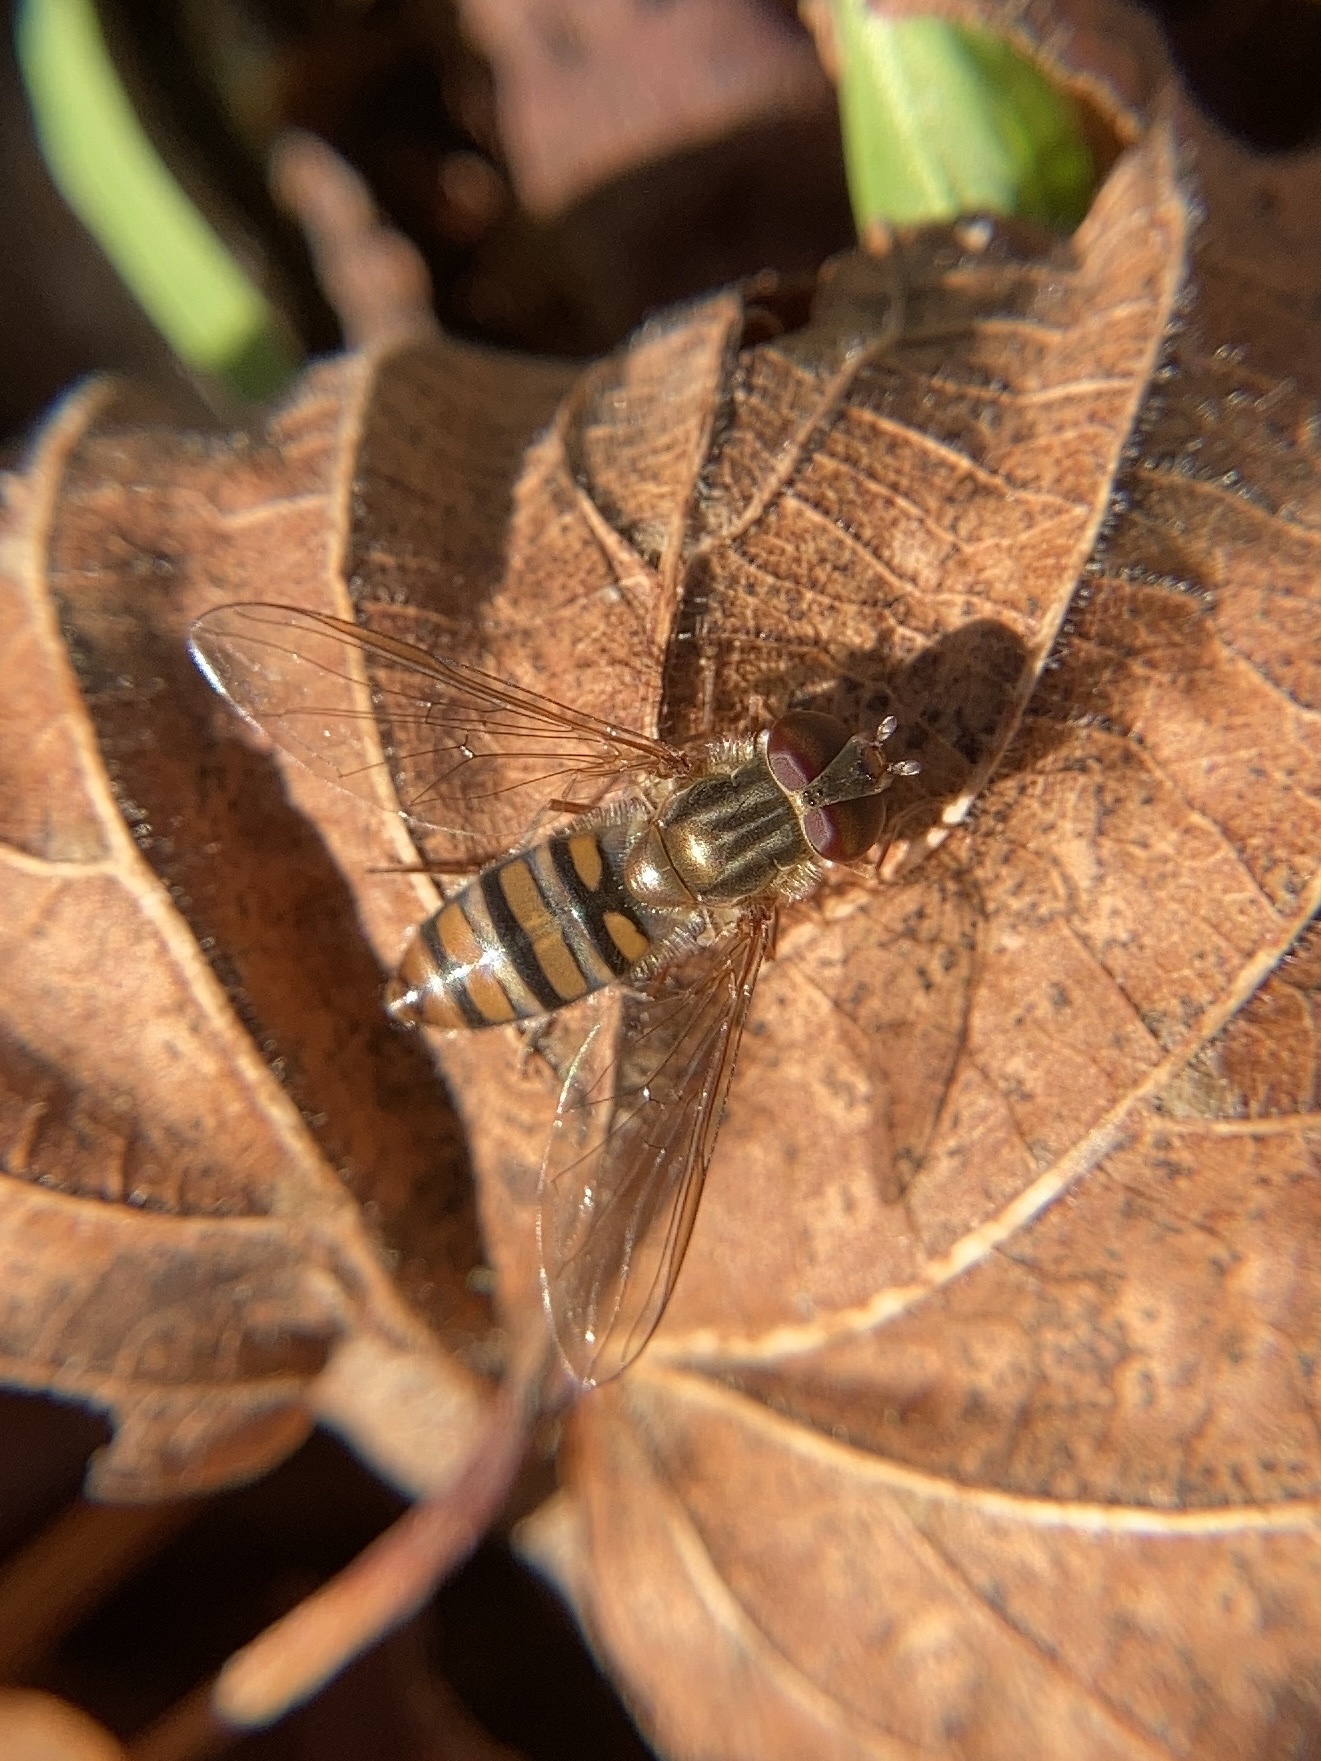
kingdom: Animalia
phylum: Arthropoda
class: Insecta
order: Diptera
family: Syrphidae
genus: Episyrphus
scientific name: Episyrphus balteatus
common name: Marmalade hoverfly
